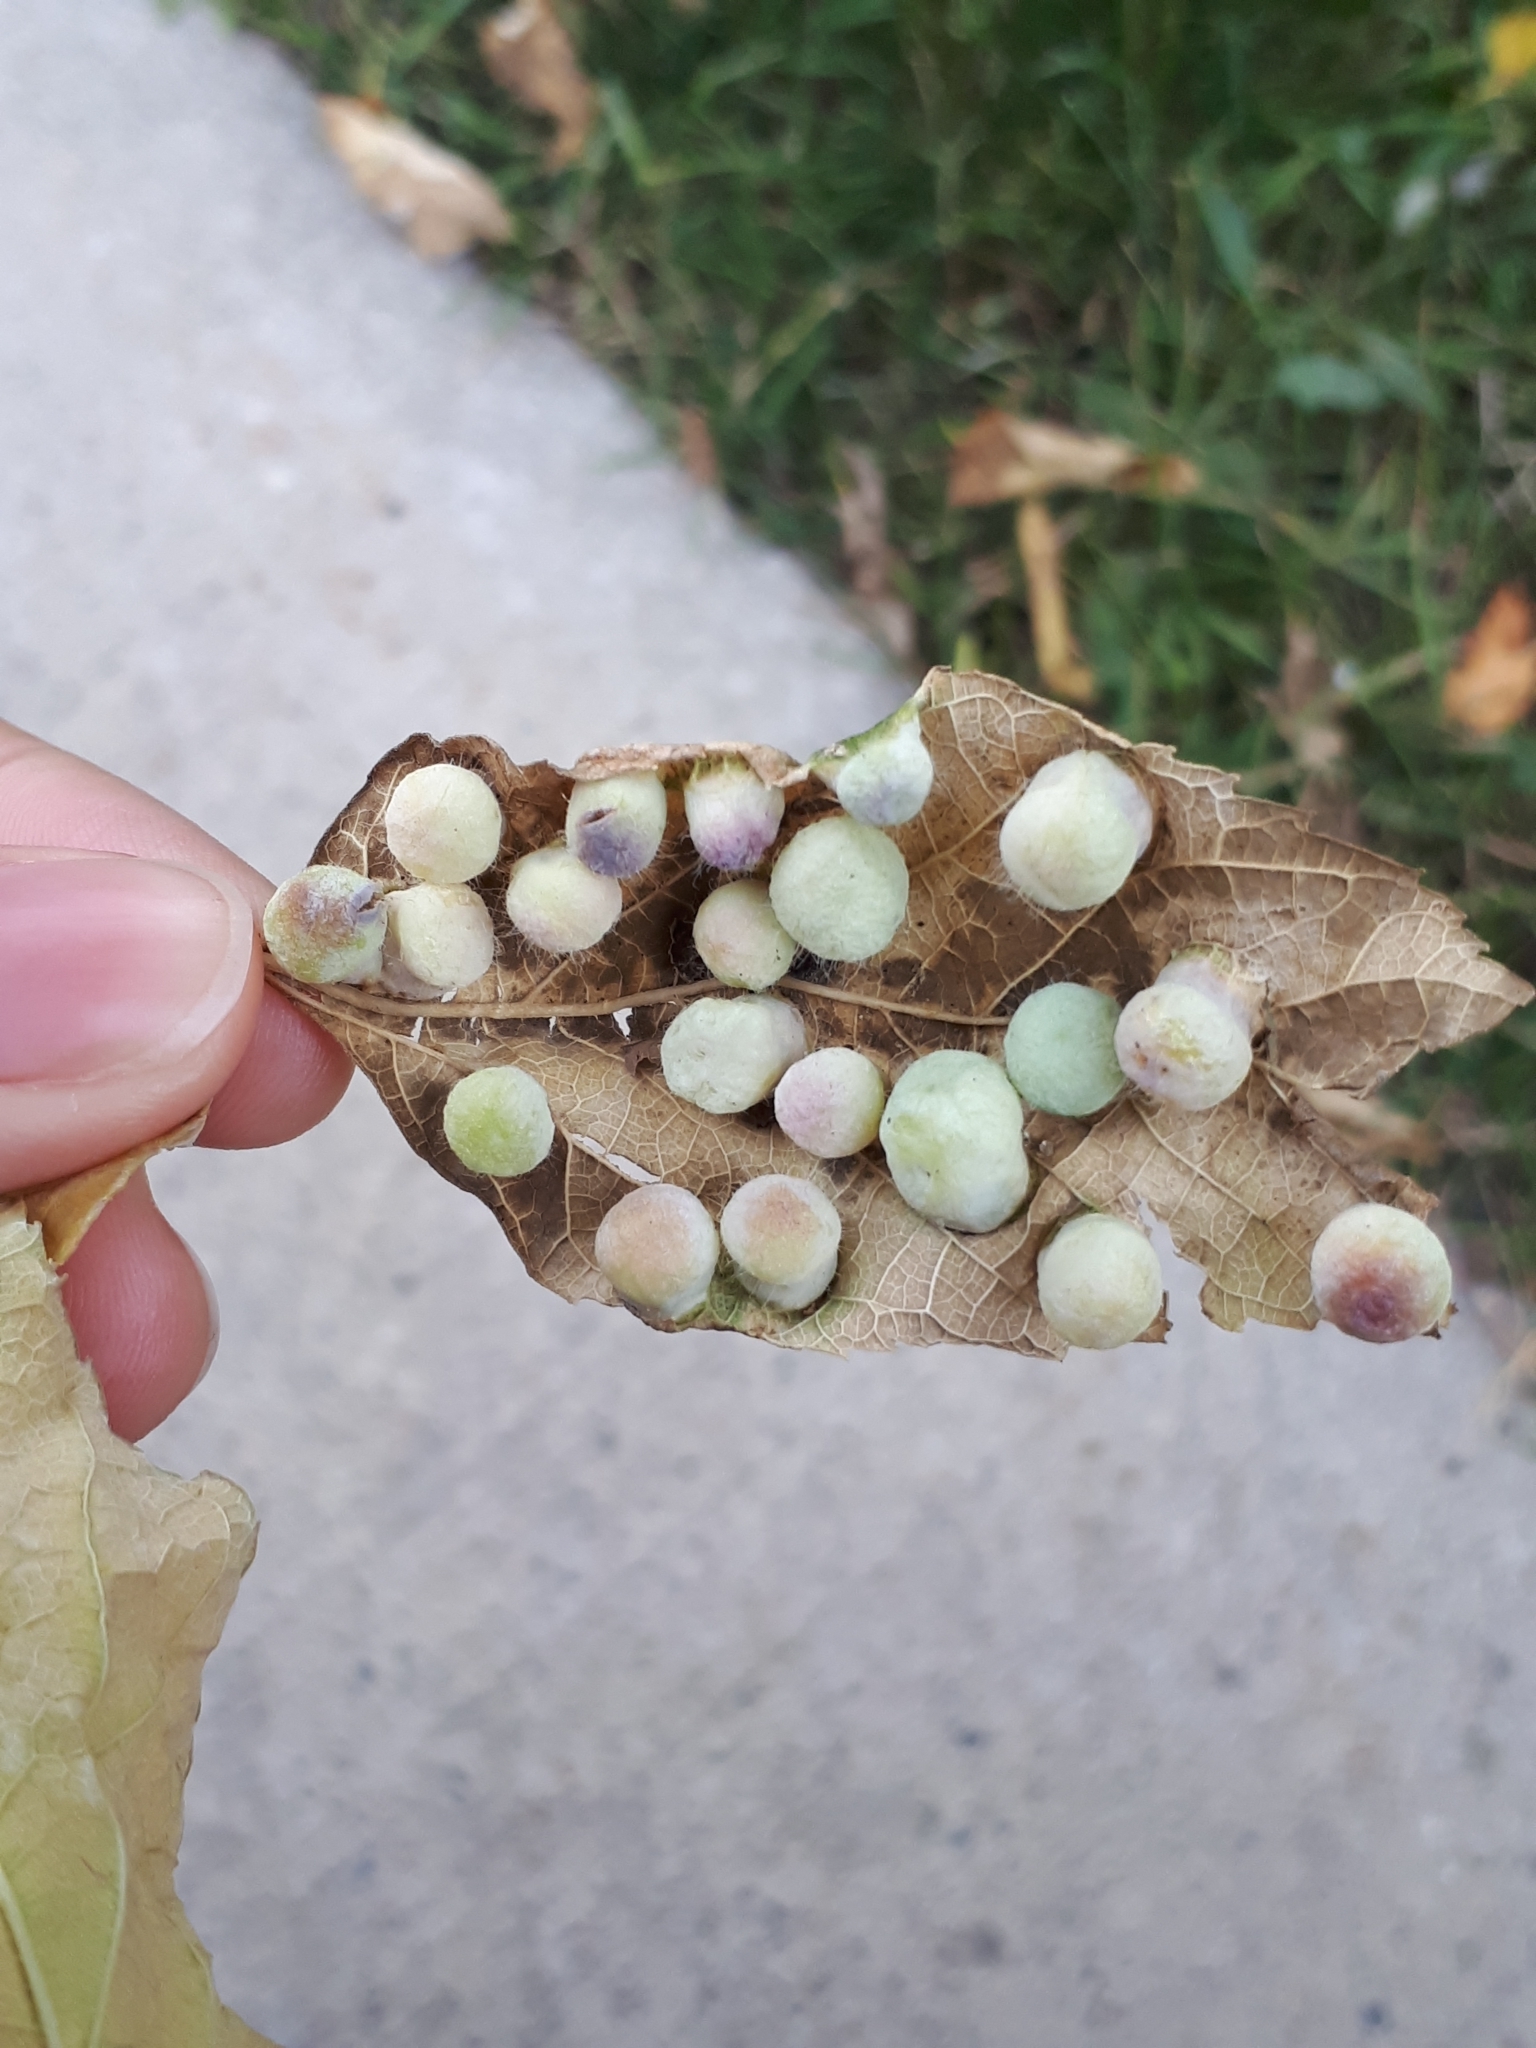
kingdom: Animalia
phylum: Arthropoda
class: Insecta
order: Hemiptera
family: Aphalaridae
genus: Pachypsylla
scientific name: Pachypsylla celtidismamma
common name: Hackberry nipplegall psyllid
